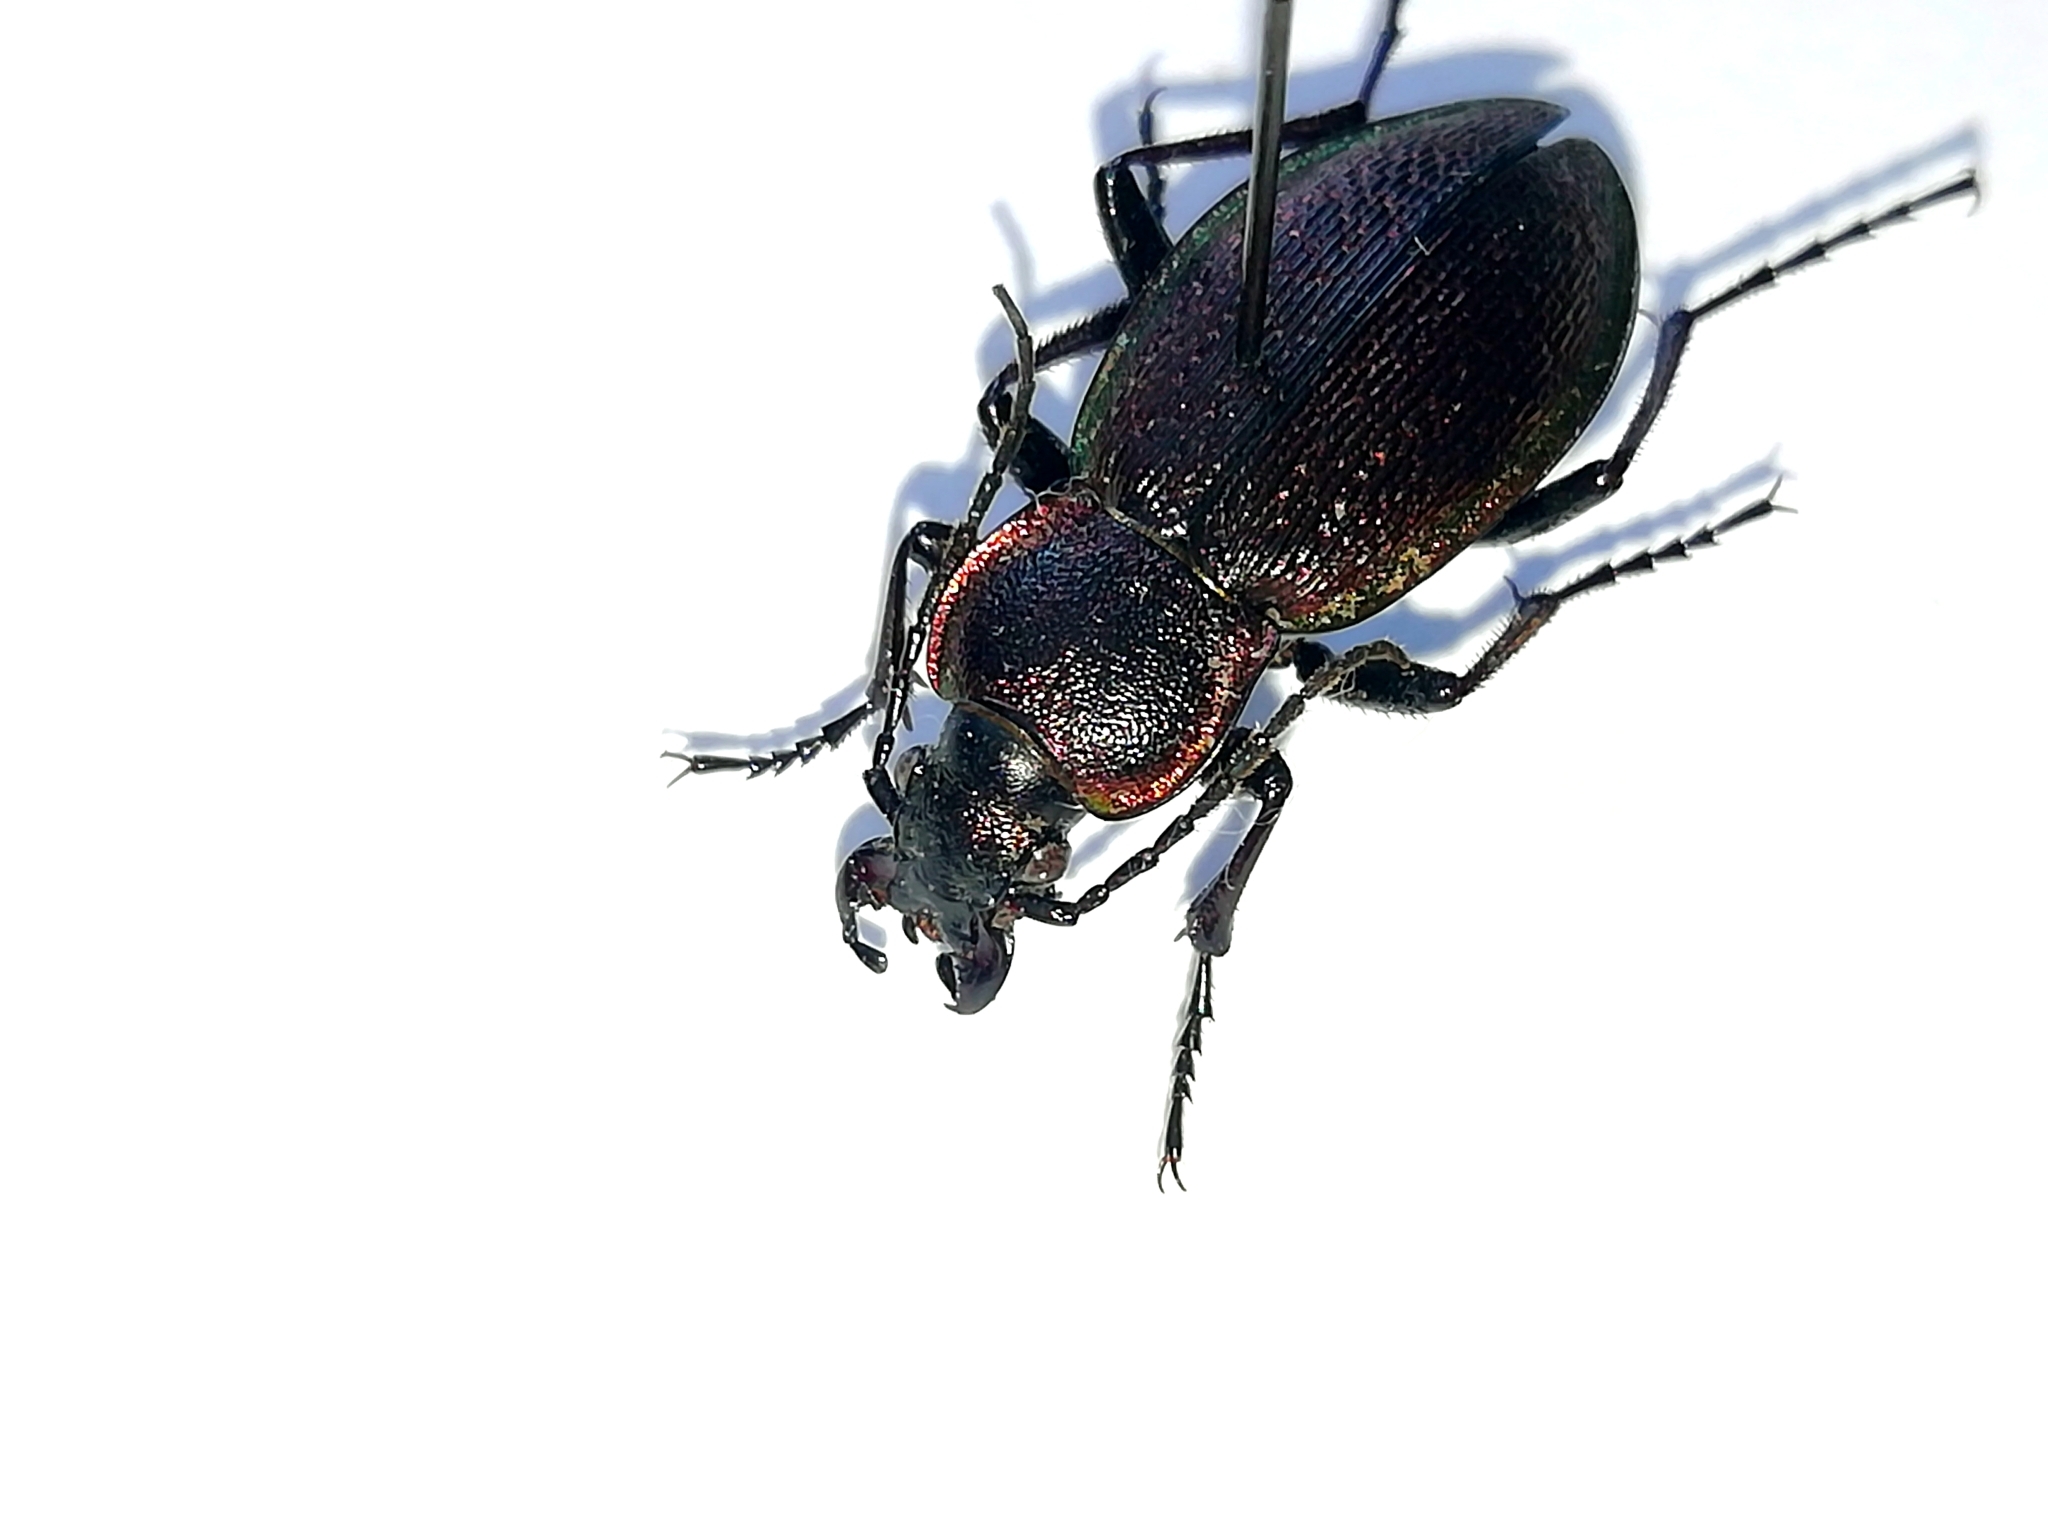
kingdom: Animalia
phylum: Arthropoda
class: Insecta
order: Coleoptera
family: Carabidae
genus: Carabus
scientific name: Carabus henningi
